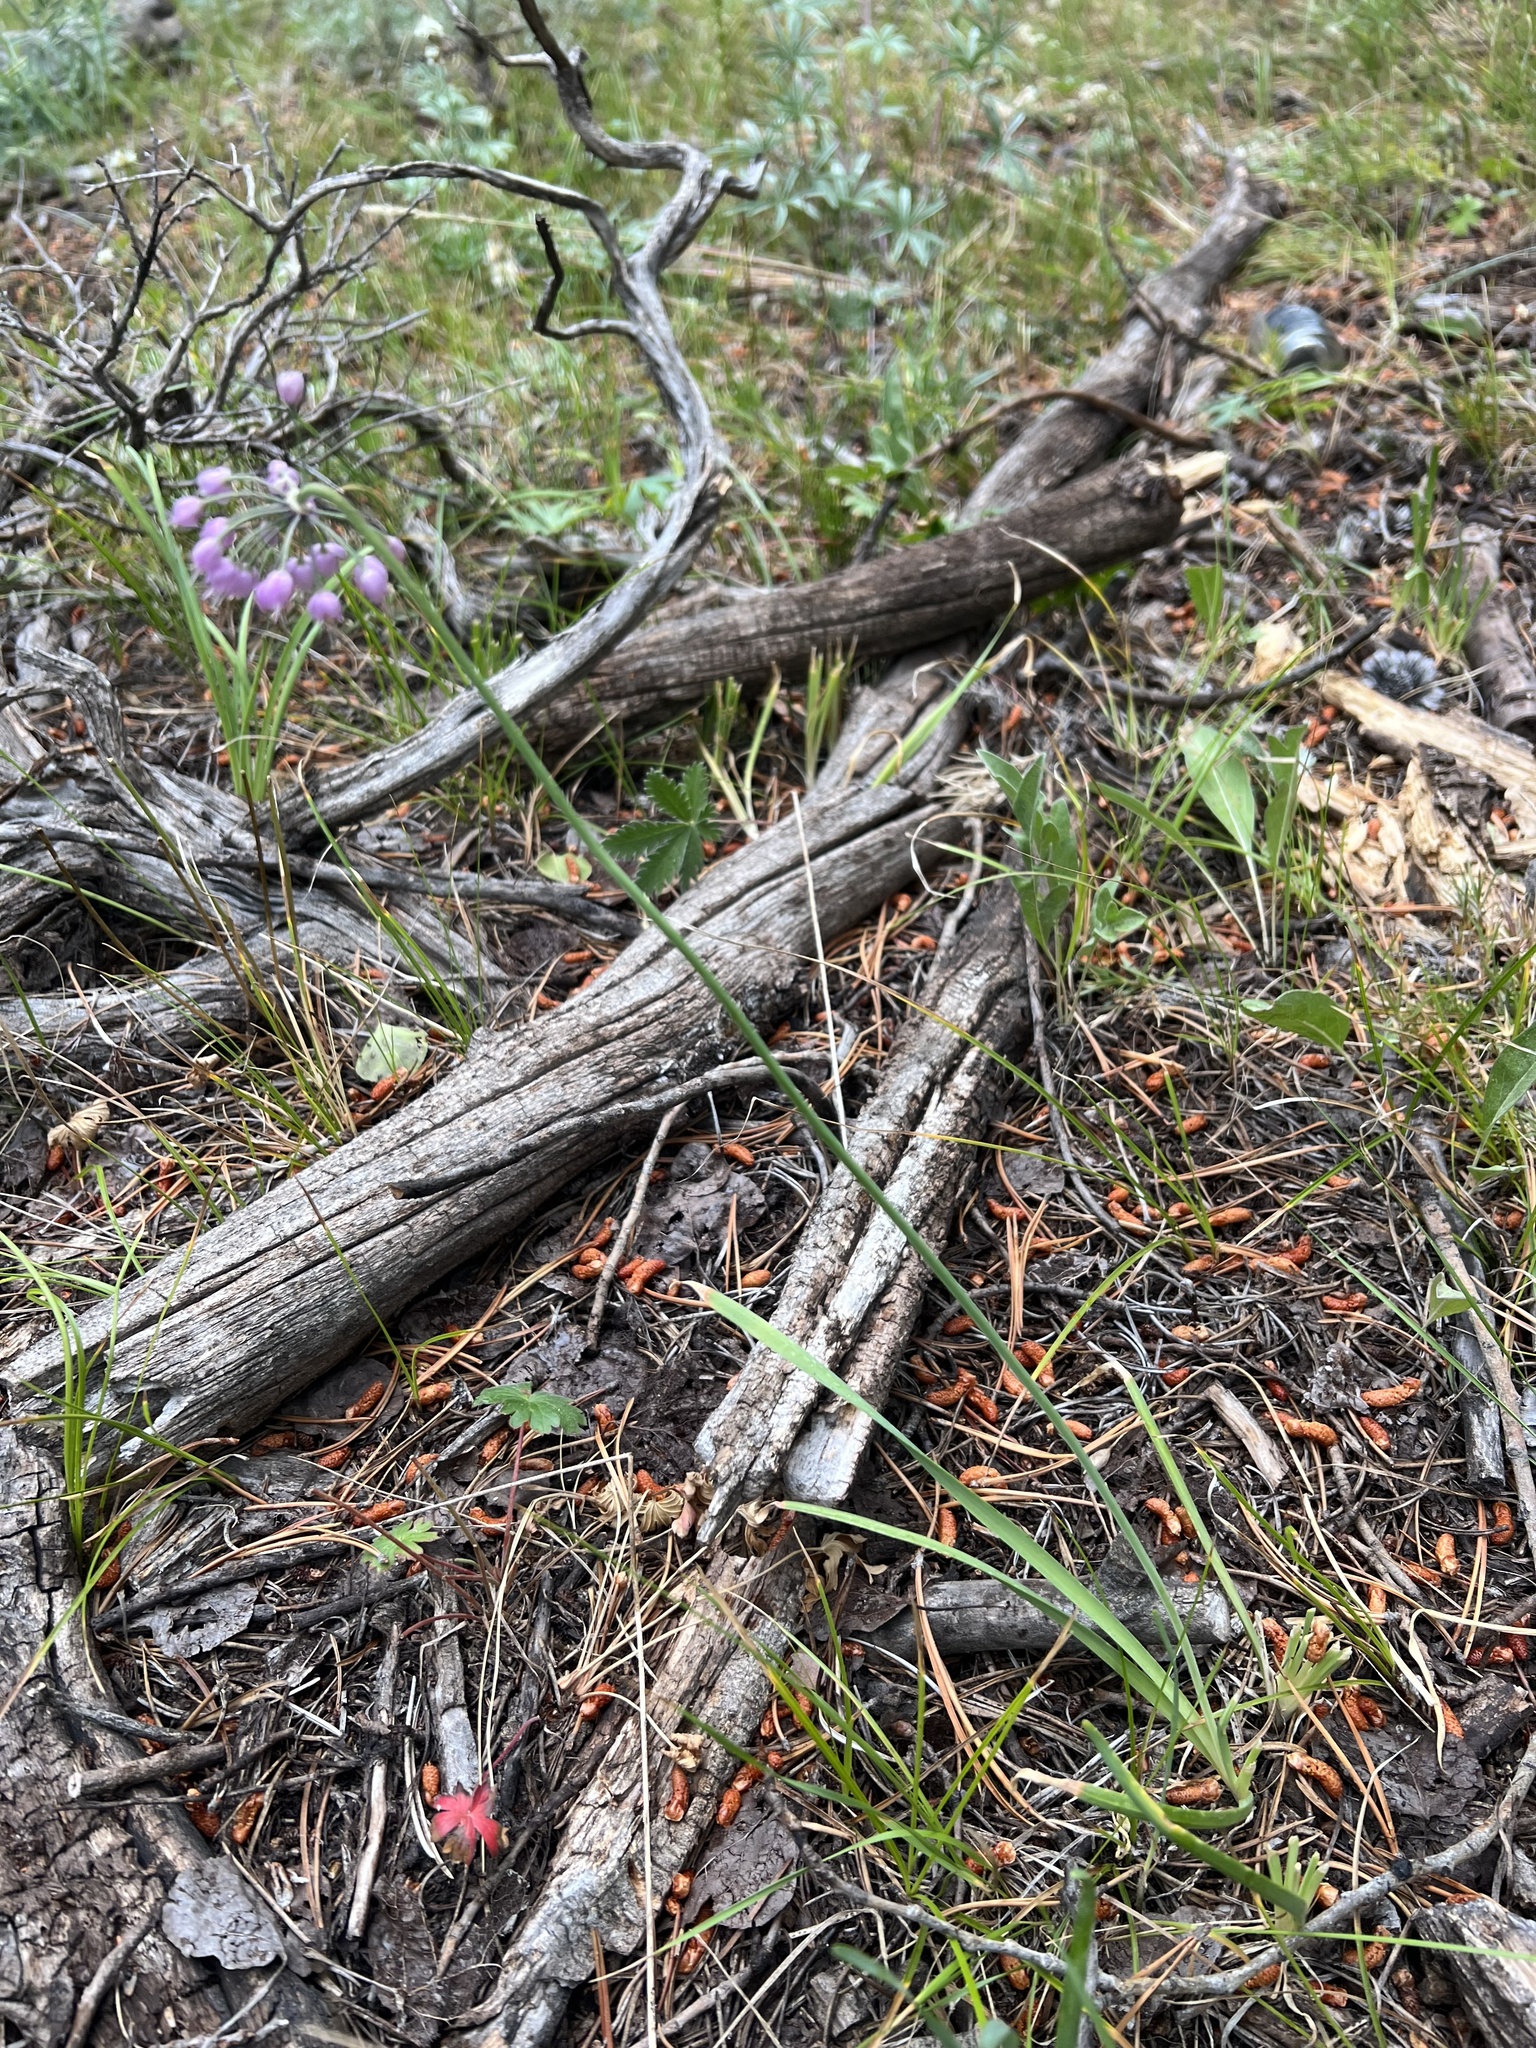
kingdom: Plantae
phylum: Tracheophyta
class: Liliopsida
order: Asparagales
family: Amaryllidaceae
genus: Allium
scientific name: Allium cernuum
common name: Nodding onion
